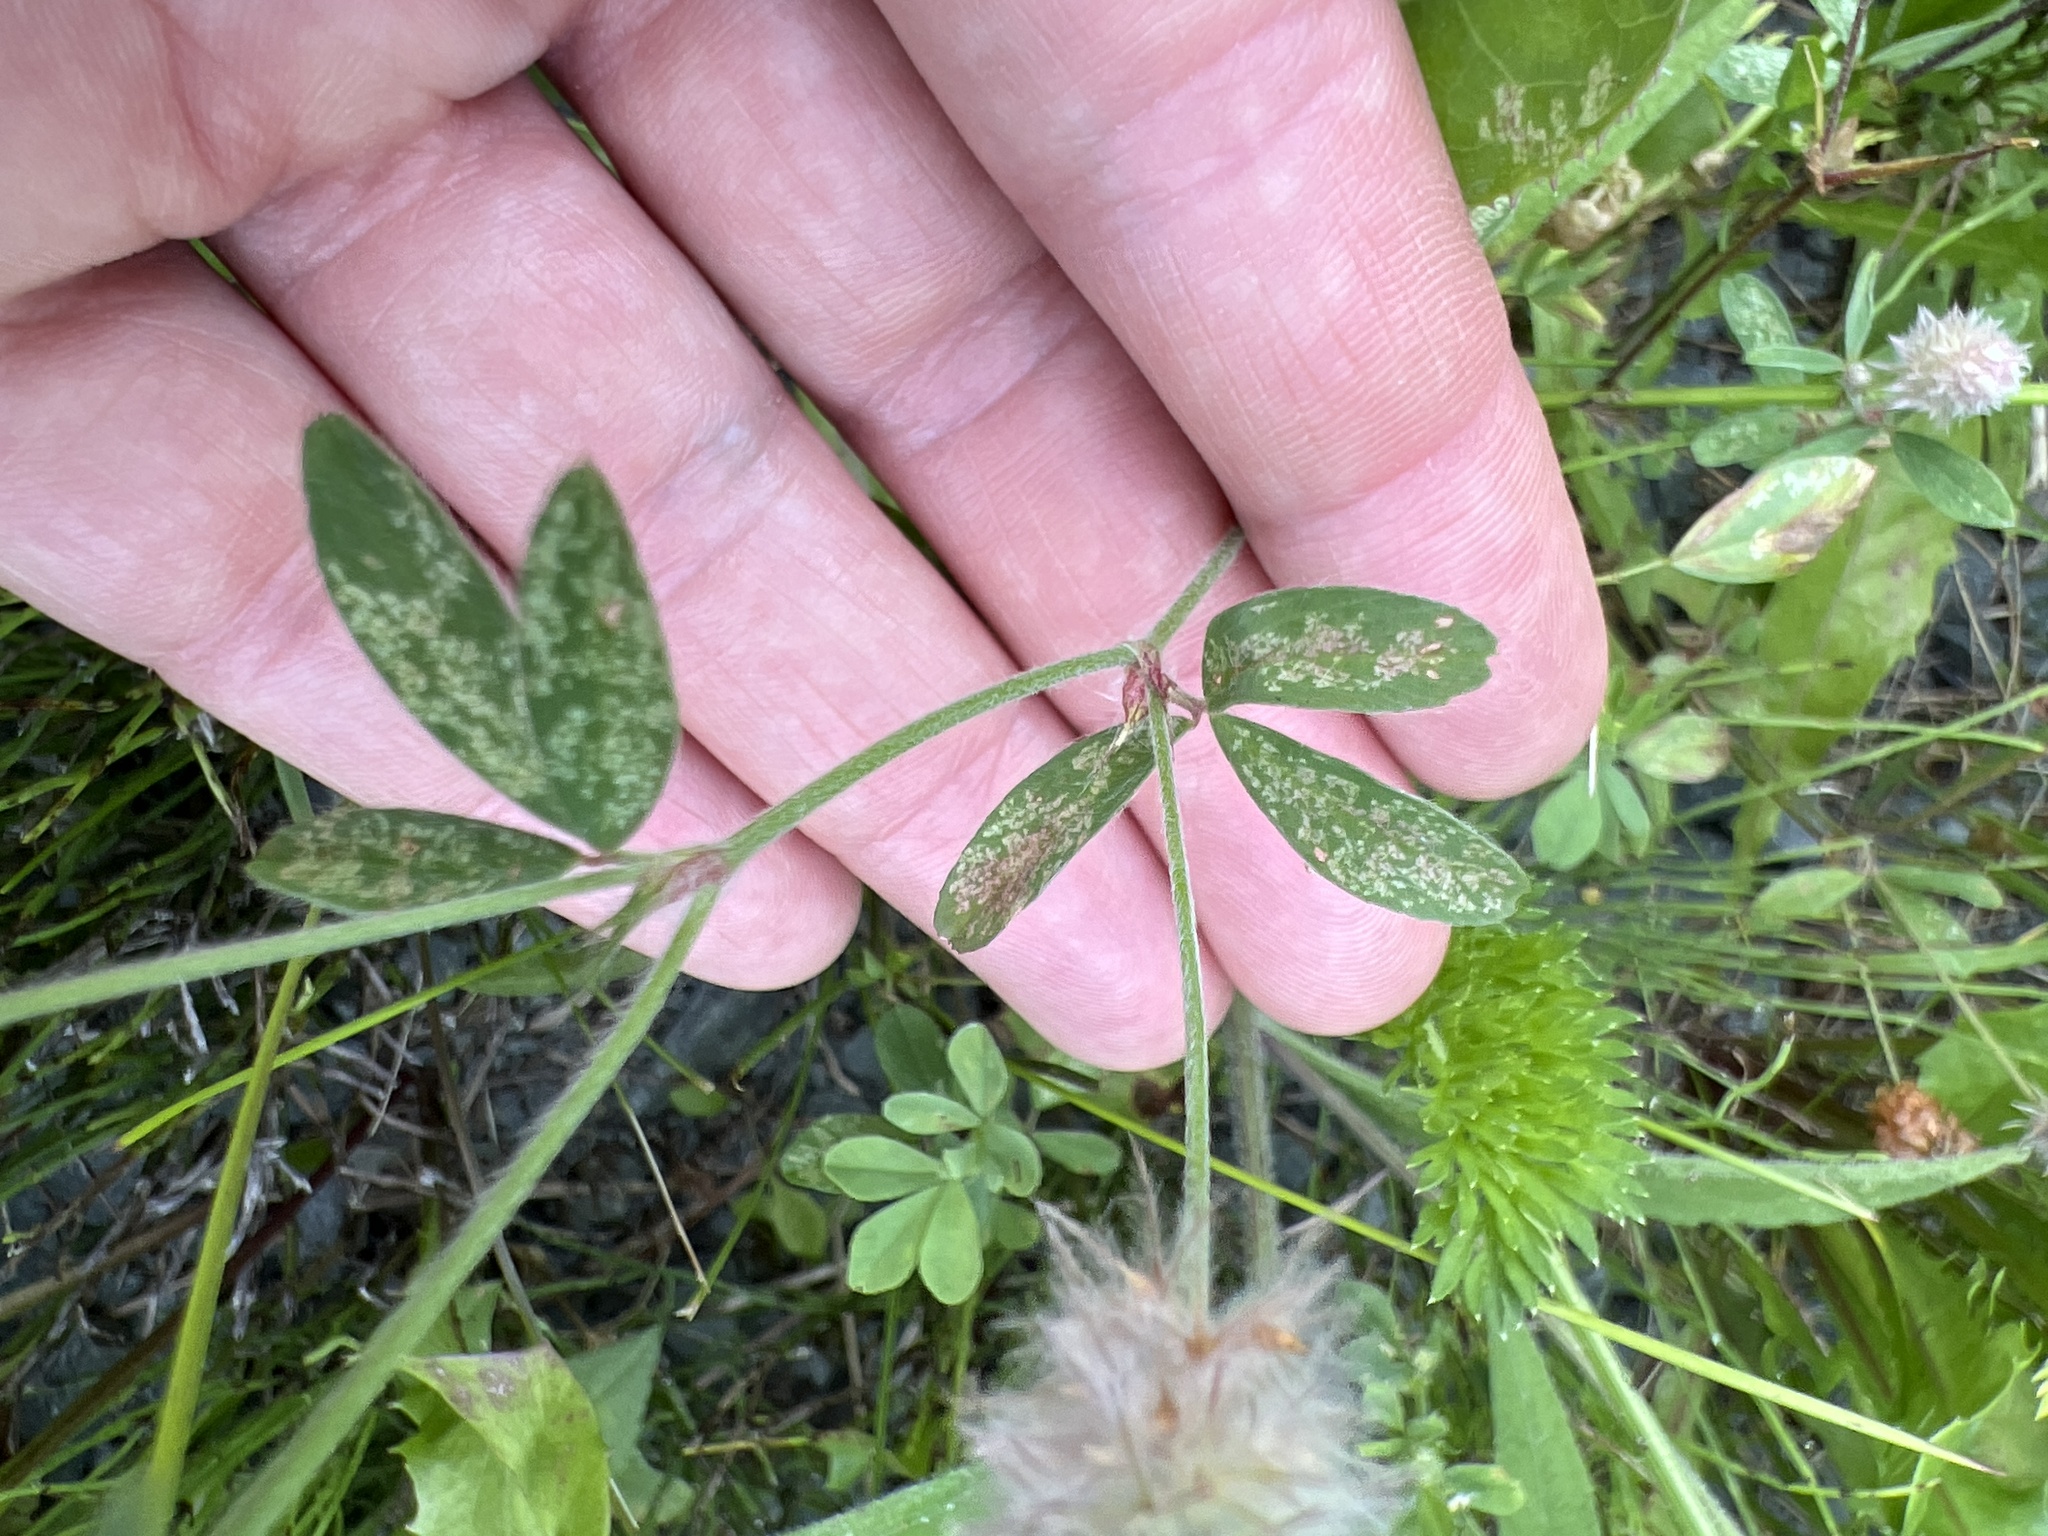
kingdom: Plantae
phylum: Tracheophyta
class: Magnoliopsida
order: Fabales
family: Fabaceae
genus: Trifolium
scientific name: Trifolium arvense
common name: Hare's-foot clover
